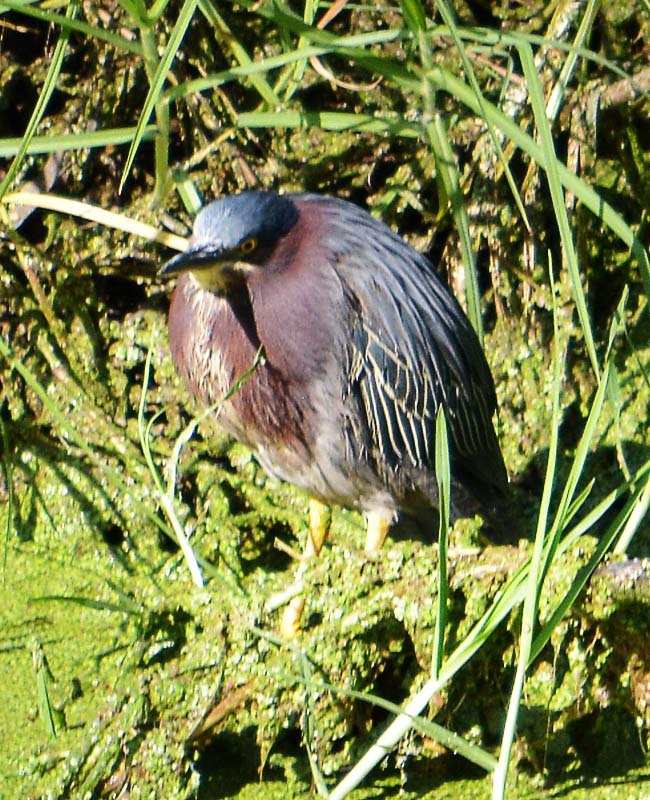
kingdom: Animalia
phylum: Chordata
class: Aves
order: Pelecaniformes
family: Ardeidae
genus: Butorides
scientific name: Butorides virescens
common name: Green heron
